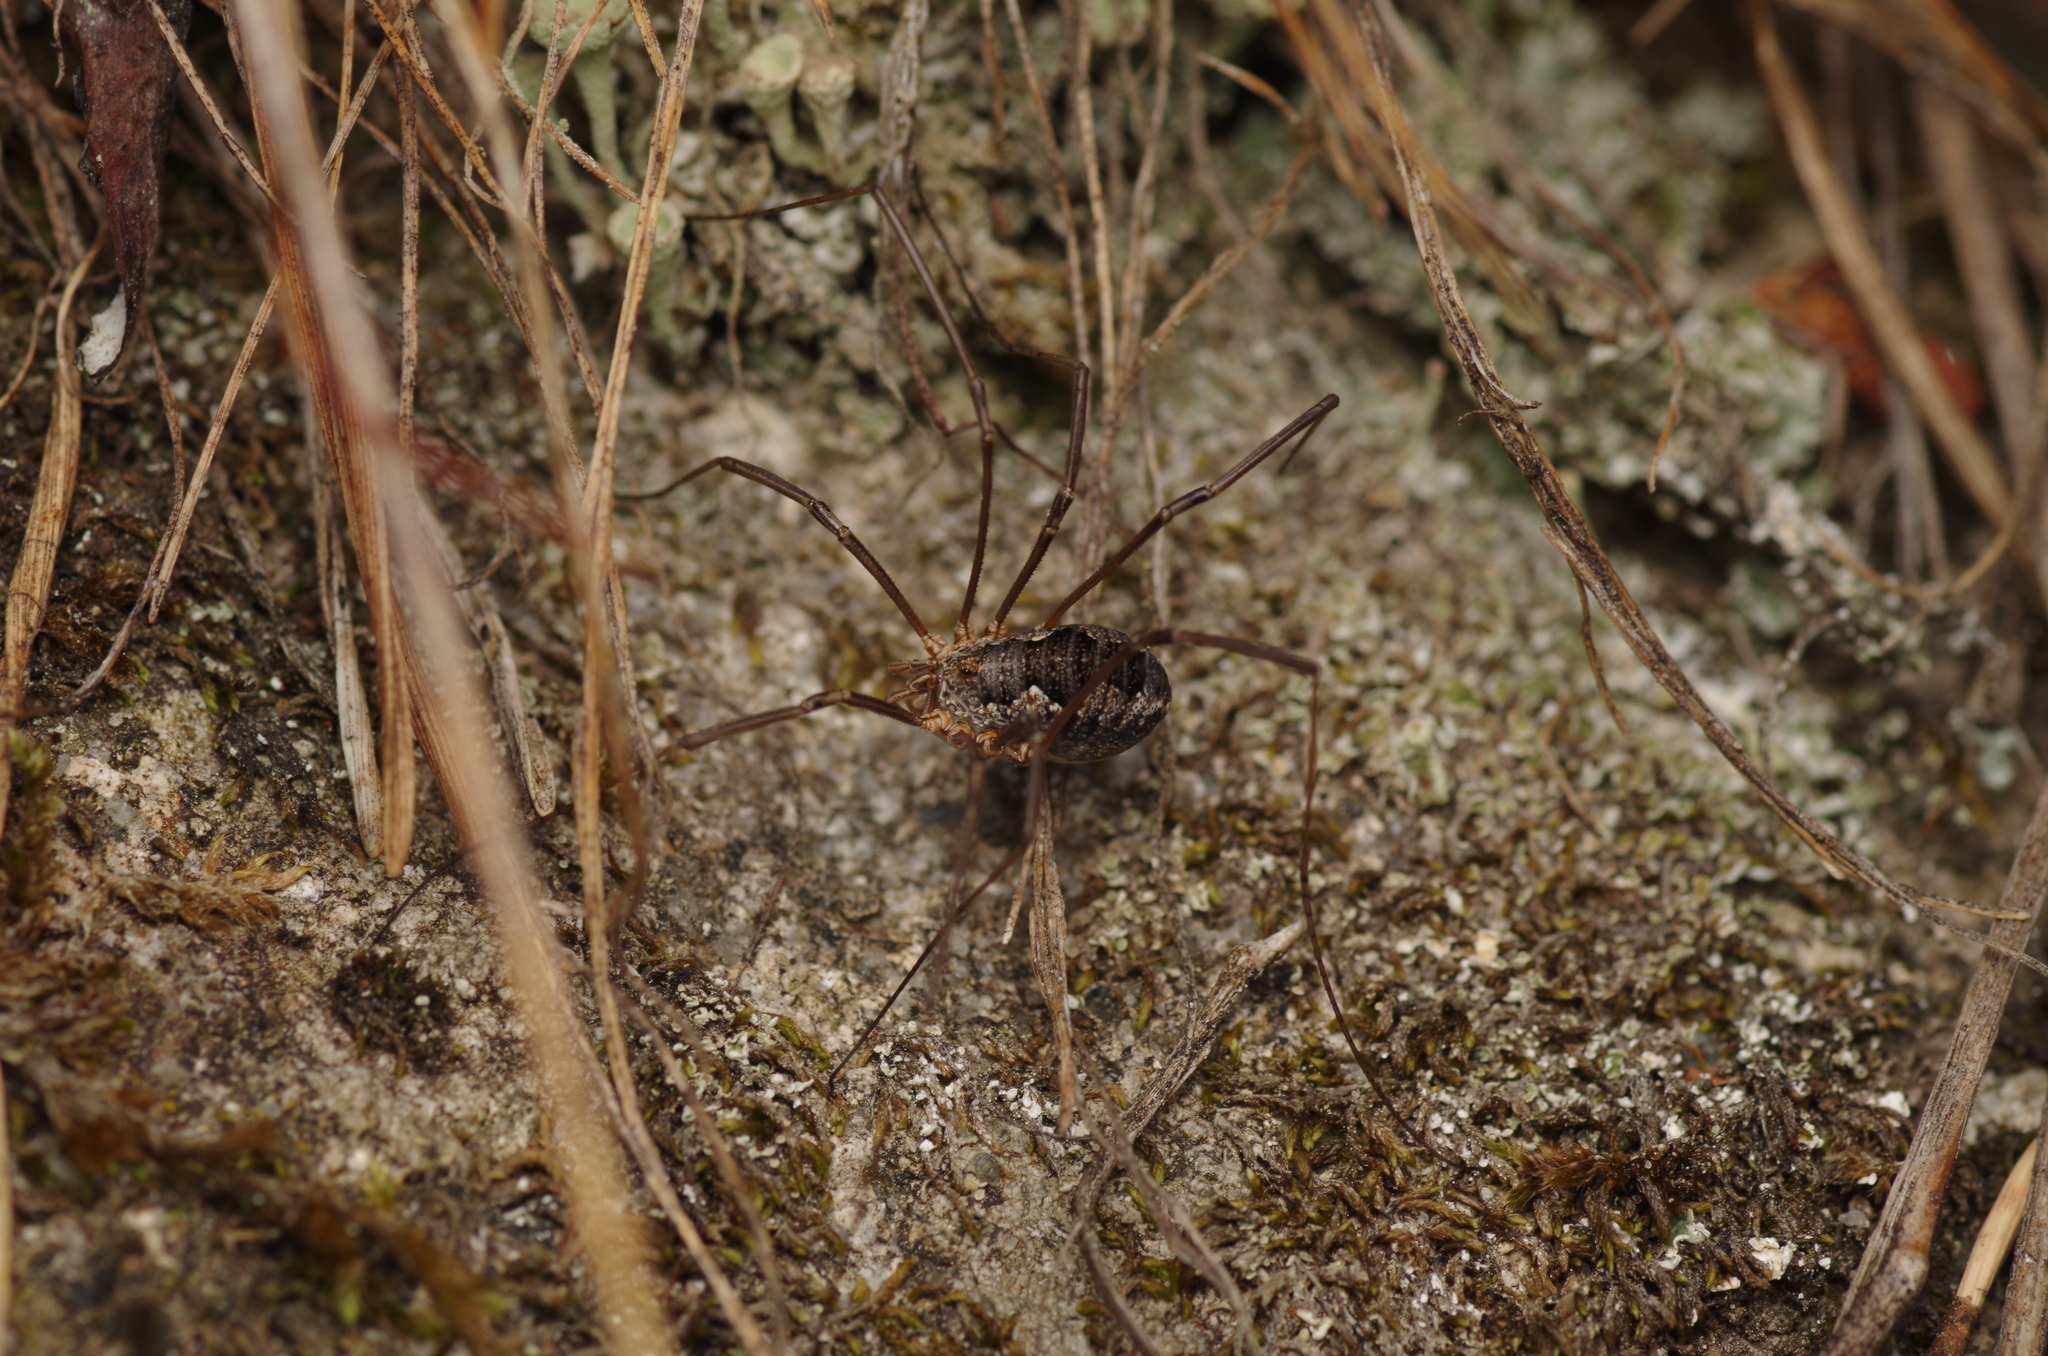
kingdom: Animalia
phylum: Arthropoda
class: Arachnida
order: Opiliones
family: Phalangiidae
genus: Phalangium
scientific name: Phalangium opilio
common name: Daddy longleg
